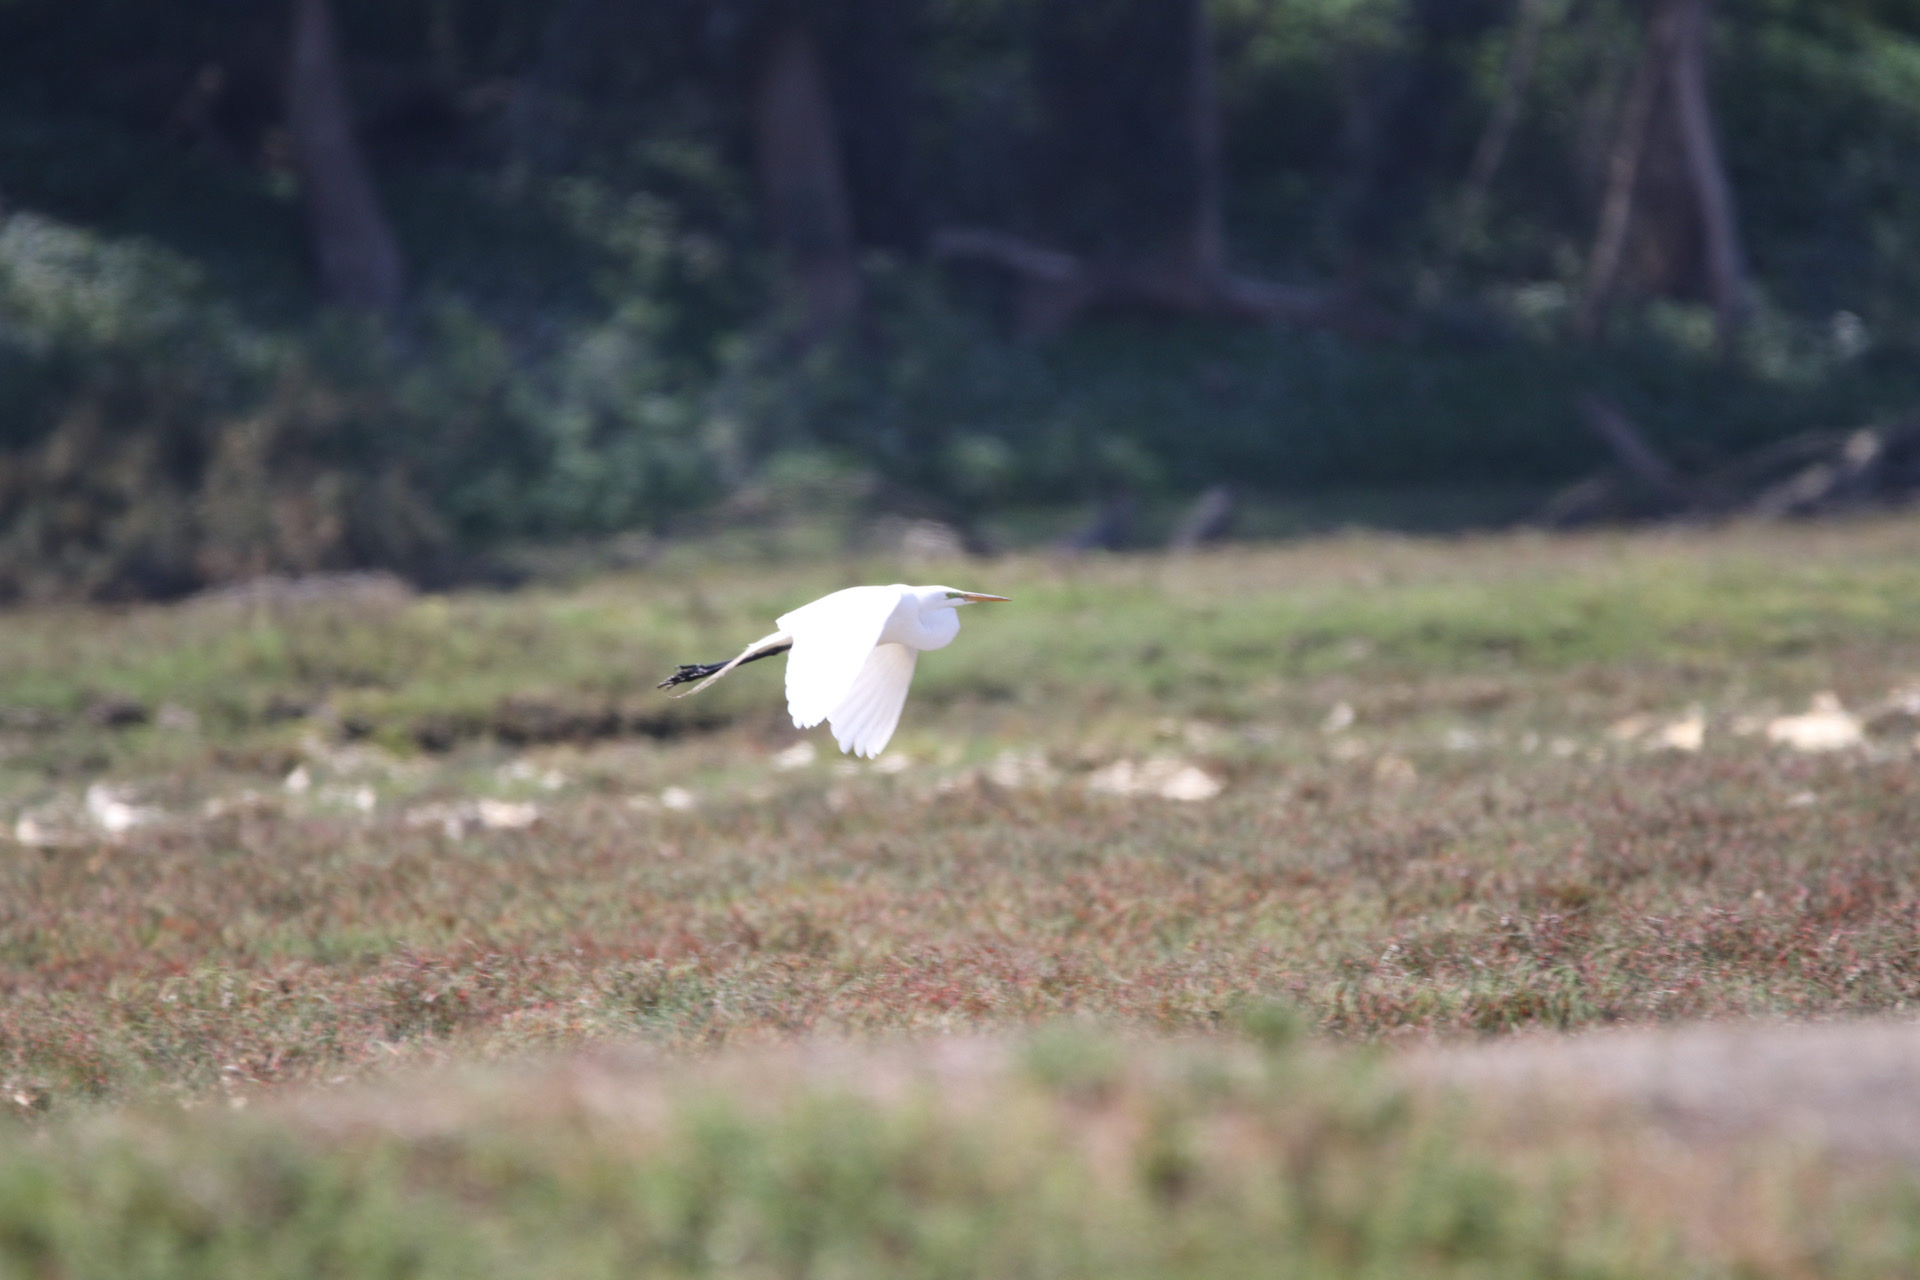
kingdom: Animalia
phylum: Chordata
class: Aves
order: Pelecaniformes
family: Ardeidae
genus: Ardea
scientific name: Ardea alba
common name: Great egret
